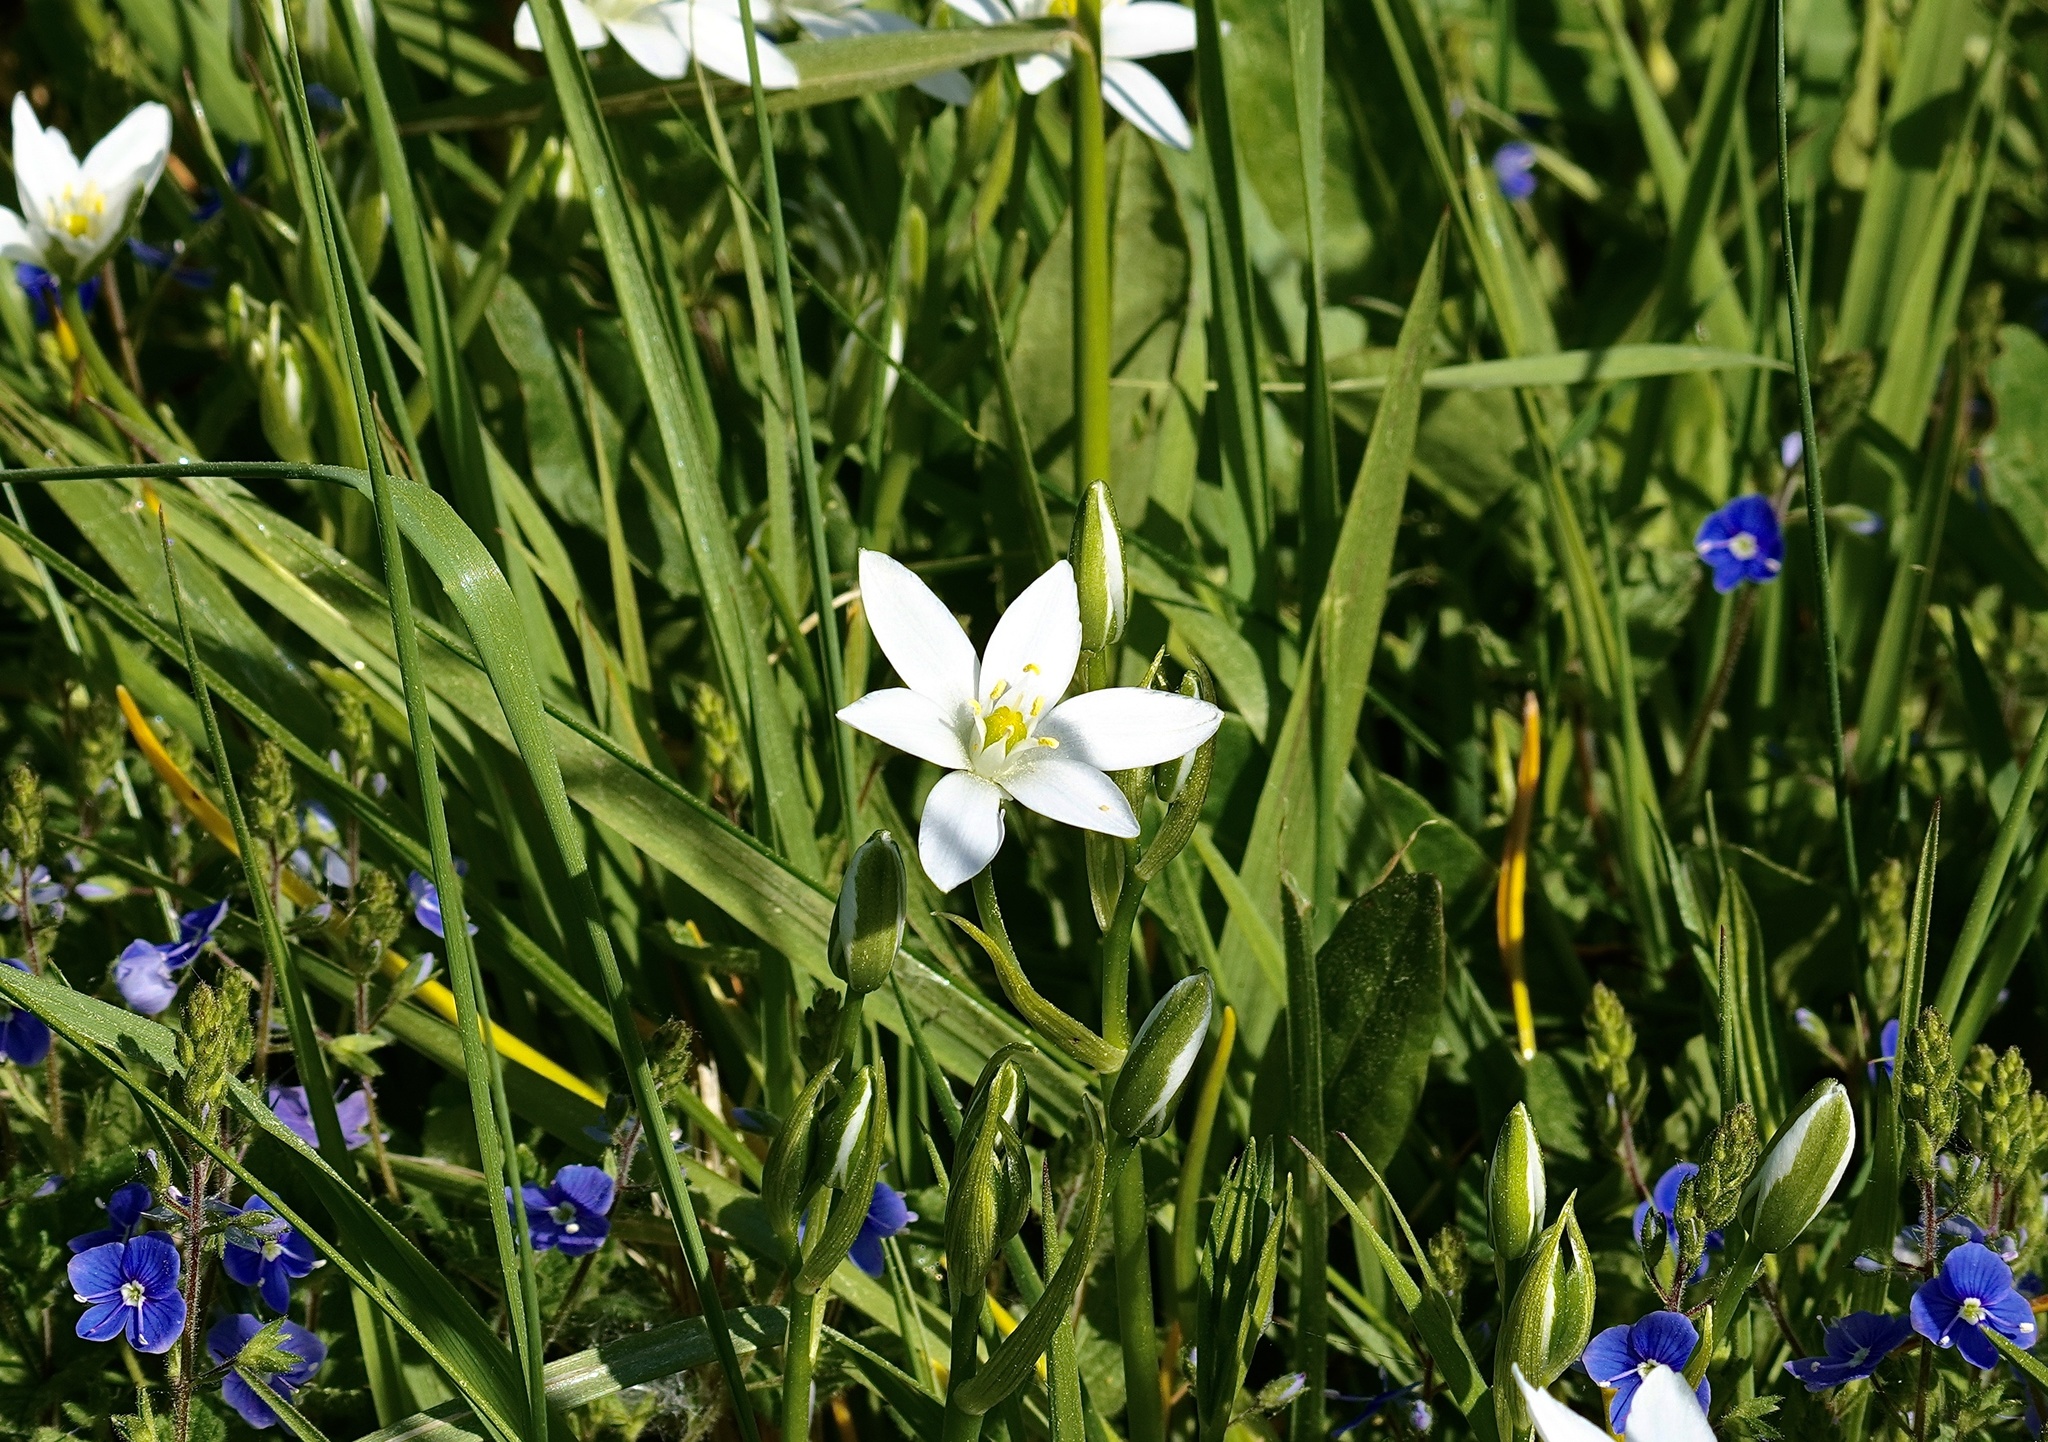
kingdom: Plantae
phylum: Tracheophyta
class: Liliopsida
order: Asparagales
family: Asparagaceae
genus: Ornithogalum
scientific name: Ornithogalum umbellatum
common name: Garden star-of-bethlehem
